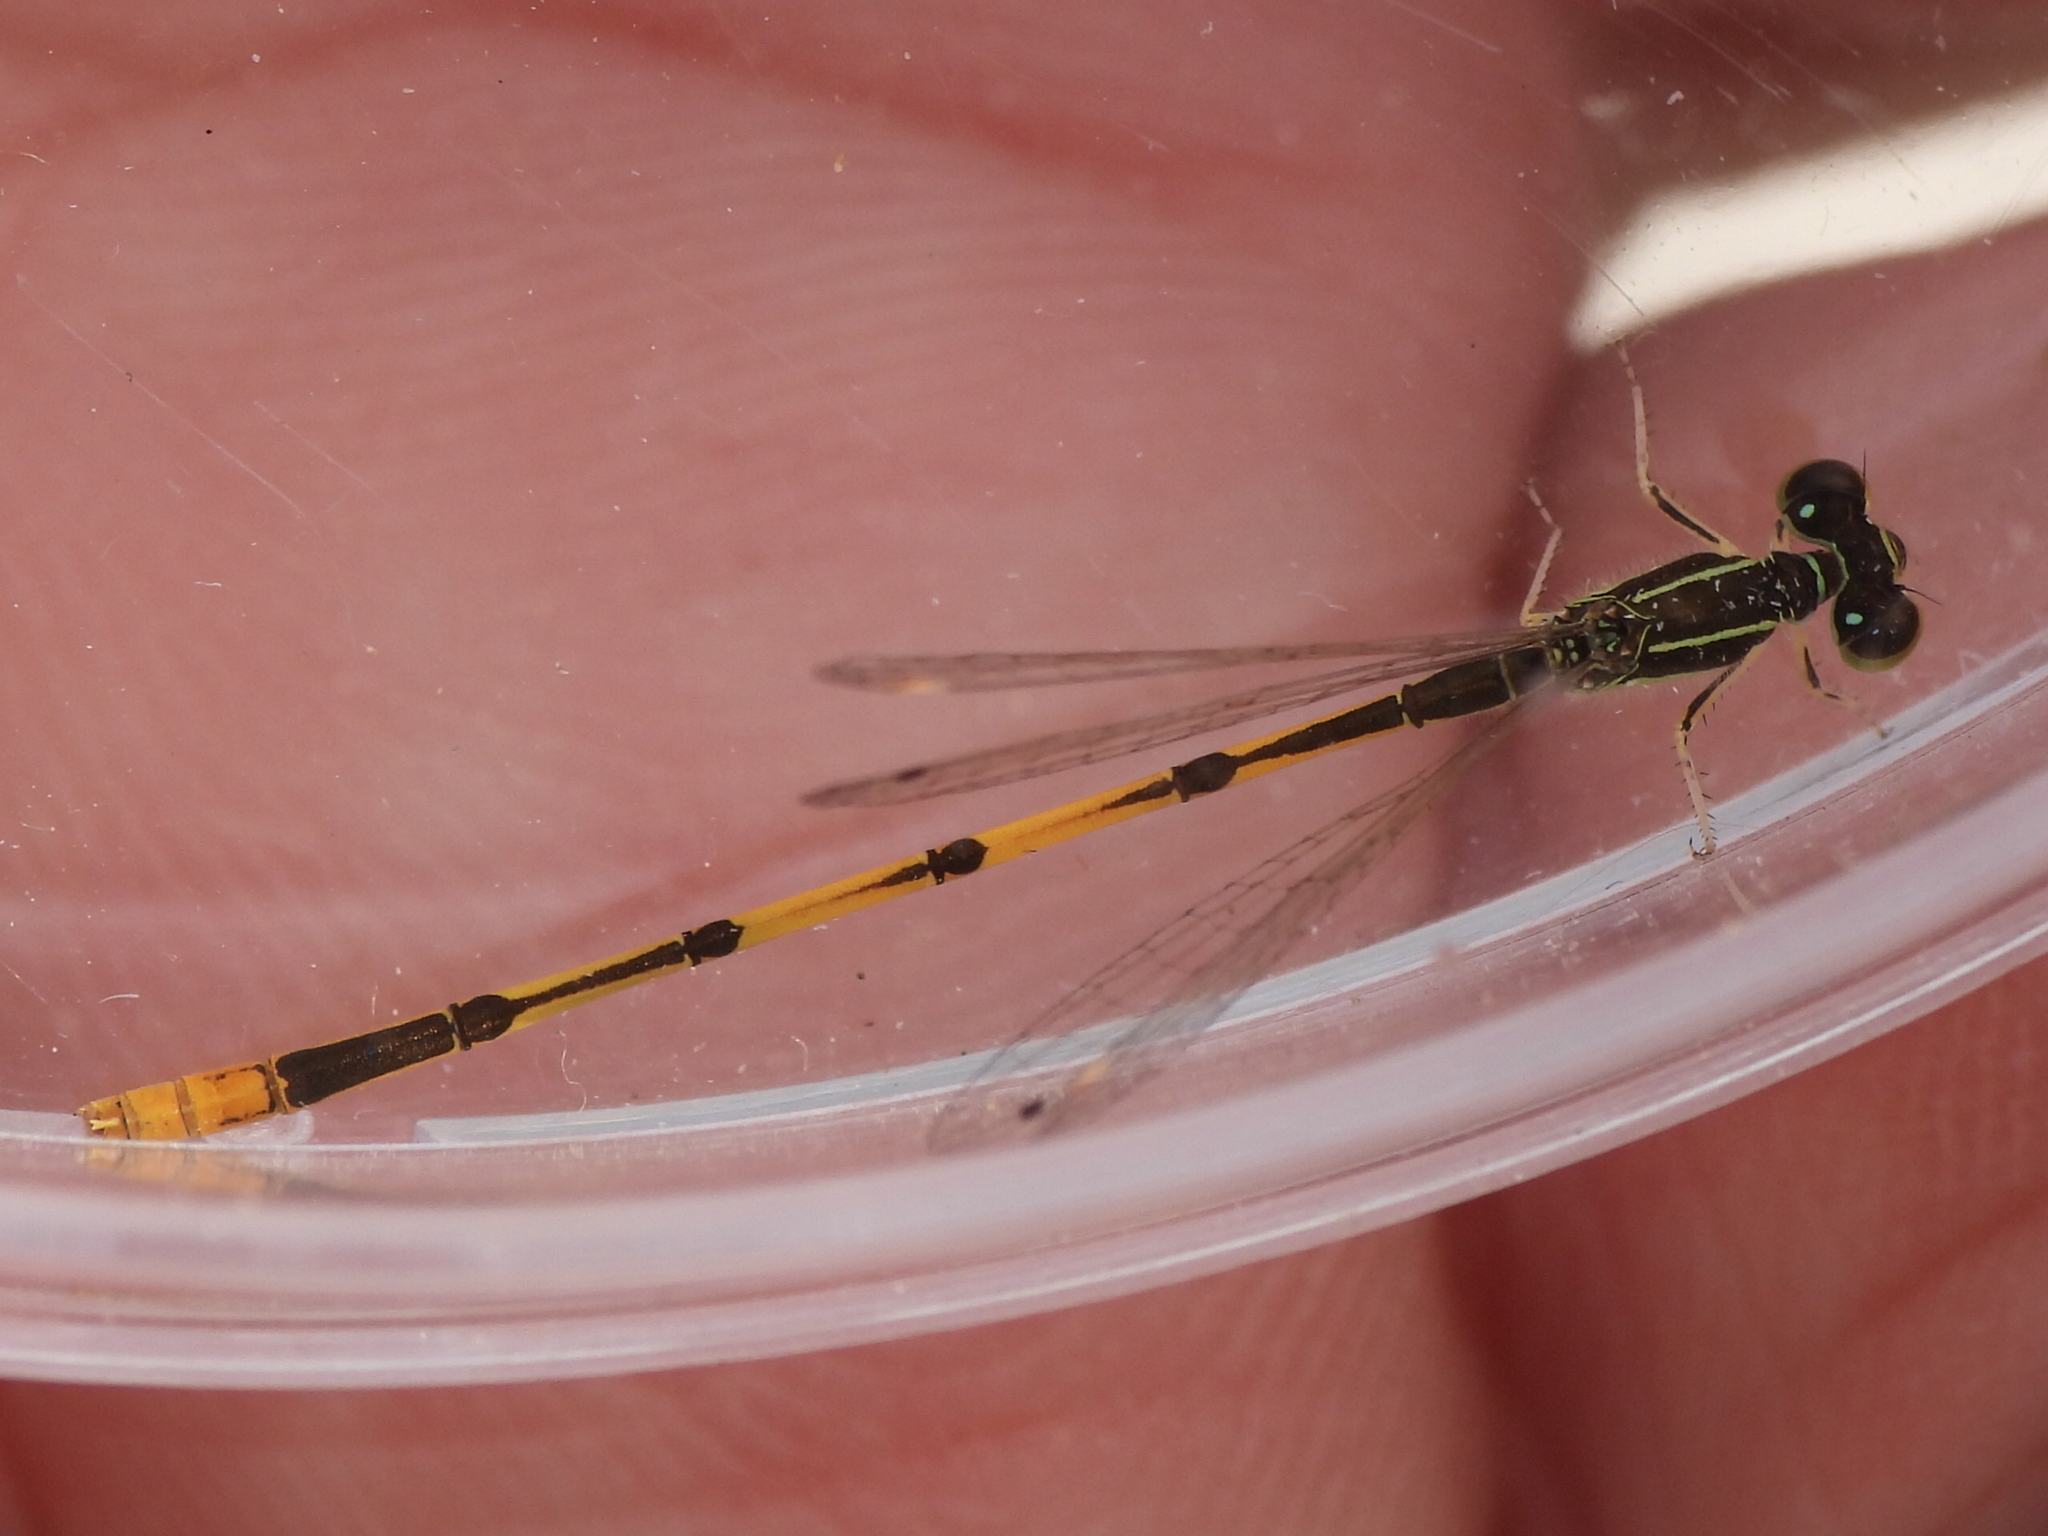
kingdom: Animalia
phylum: Arthropoda
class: Insecta
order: Odonata
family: Coenagrionidae
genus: Ischnura
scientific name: Ischnura hastata
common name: Citrine forktail
